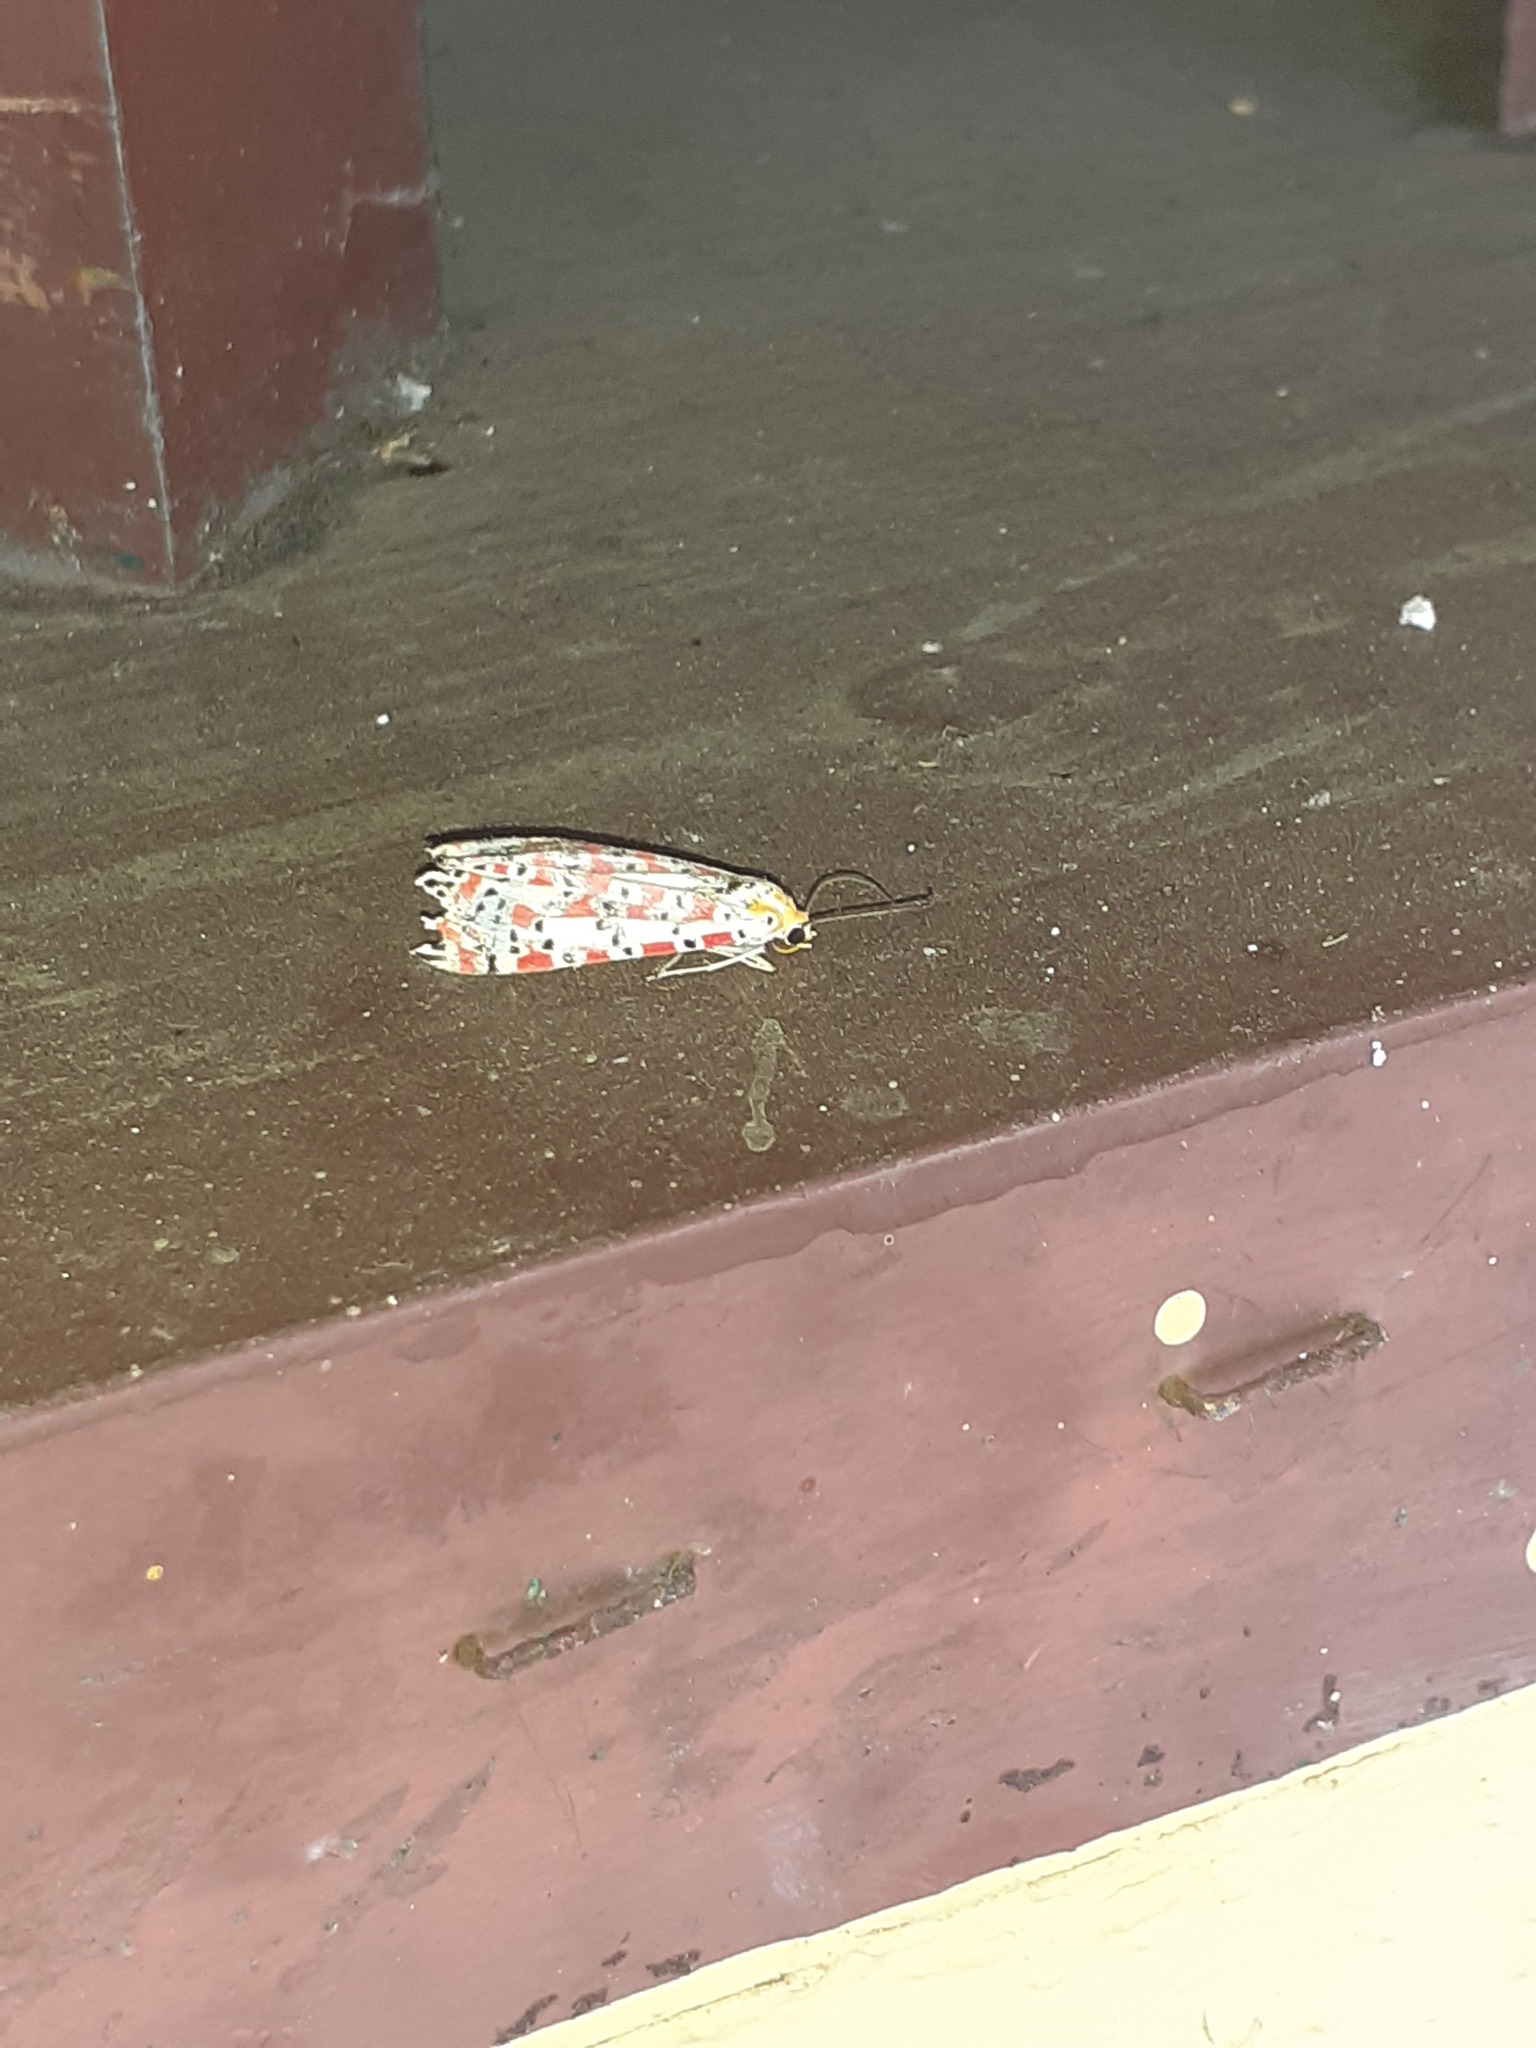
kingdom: Animalia
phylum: Arthropoda
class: Insecta
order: Lepidoptera
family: Erebidae
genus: Utetheisa
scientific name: Utetheisa pulchella
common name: Crimson speckled
